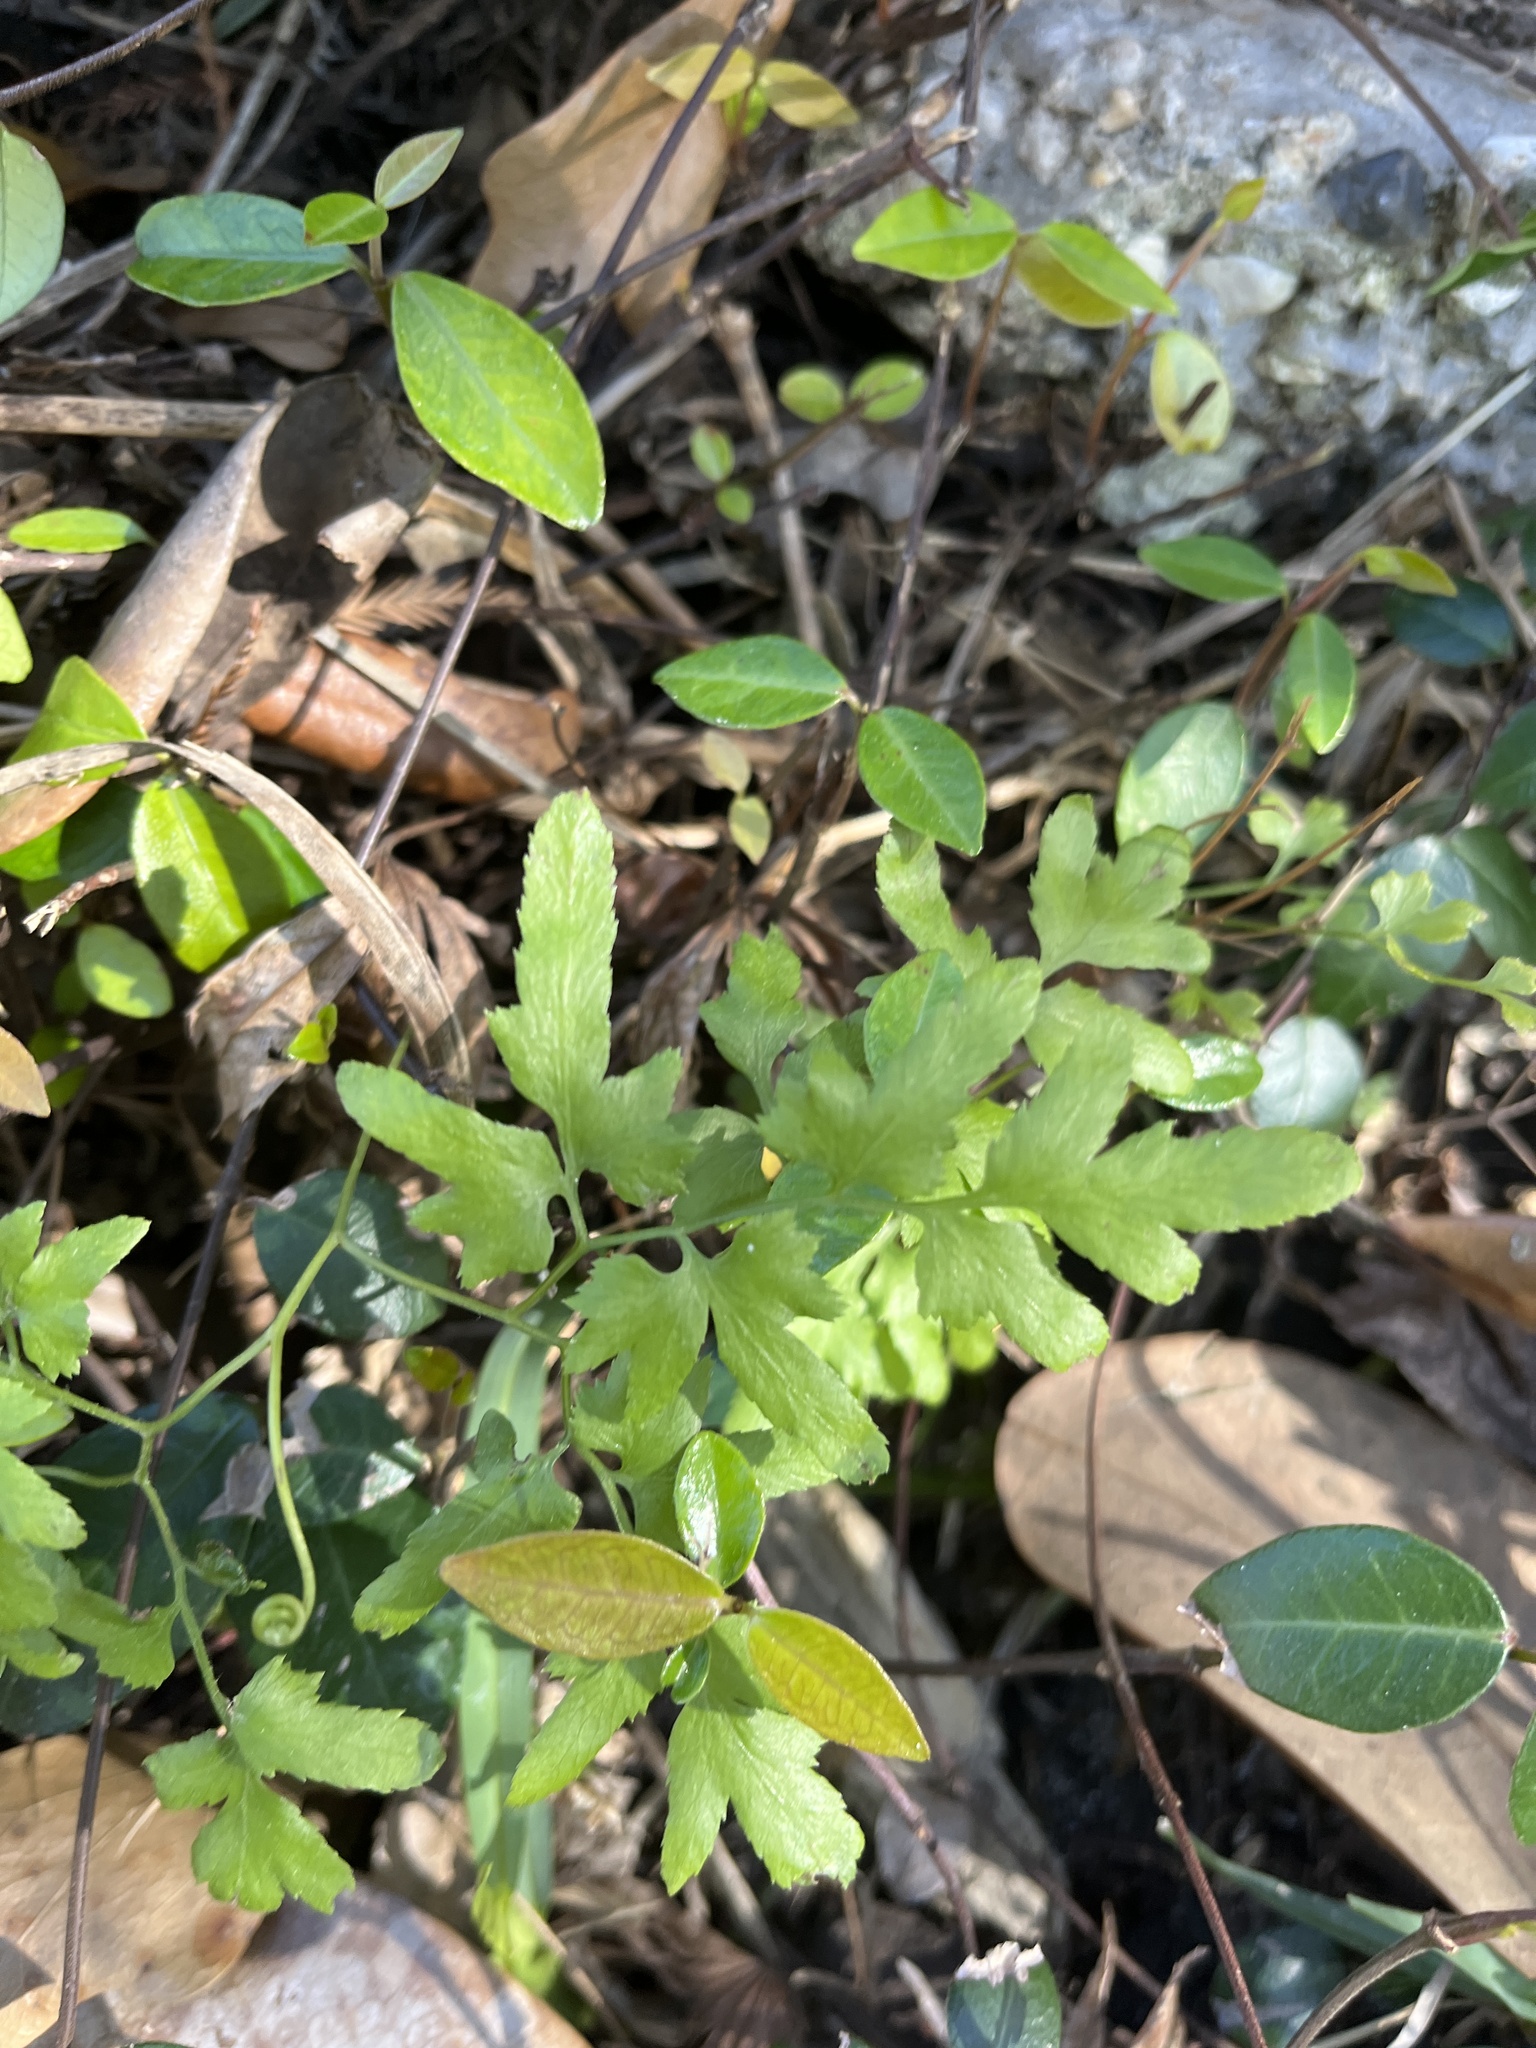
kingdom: Plantae
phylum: Tracheophyta
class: Polypodiopsida
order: Schizaeales
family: Lygodiaceae
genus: Lygodium
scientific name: Lygodium japonicum
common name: Japanese climbing fern
